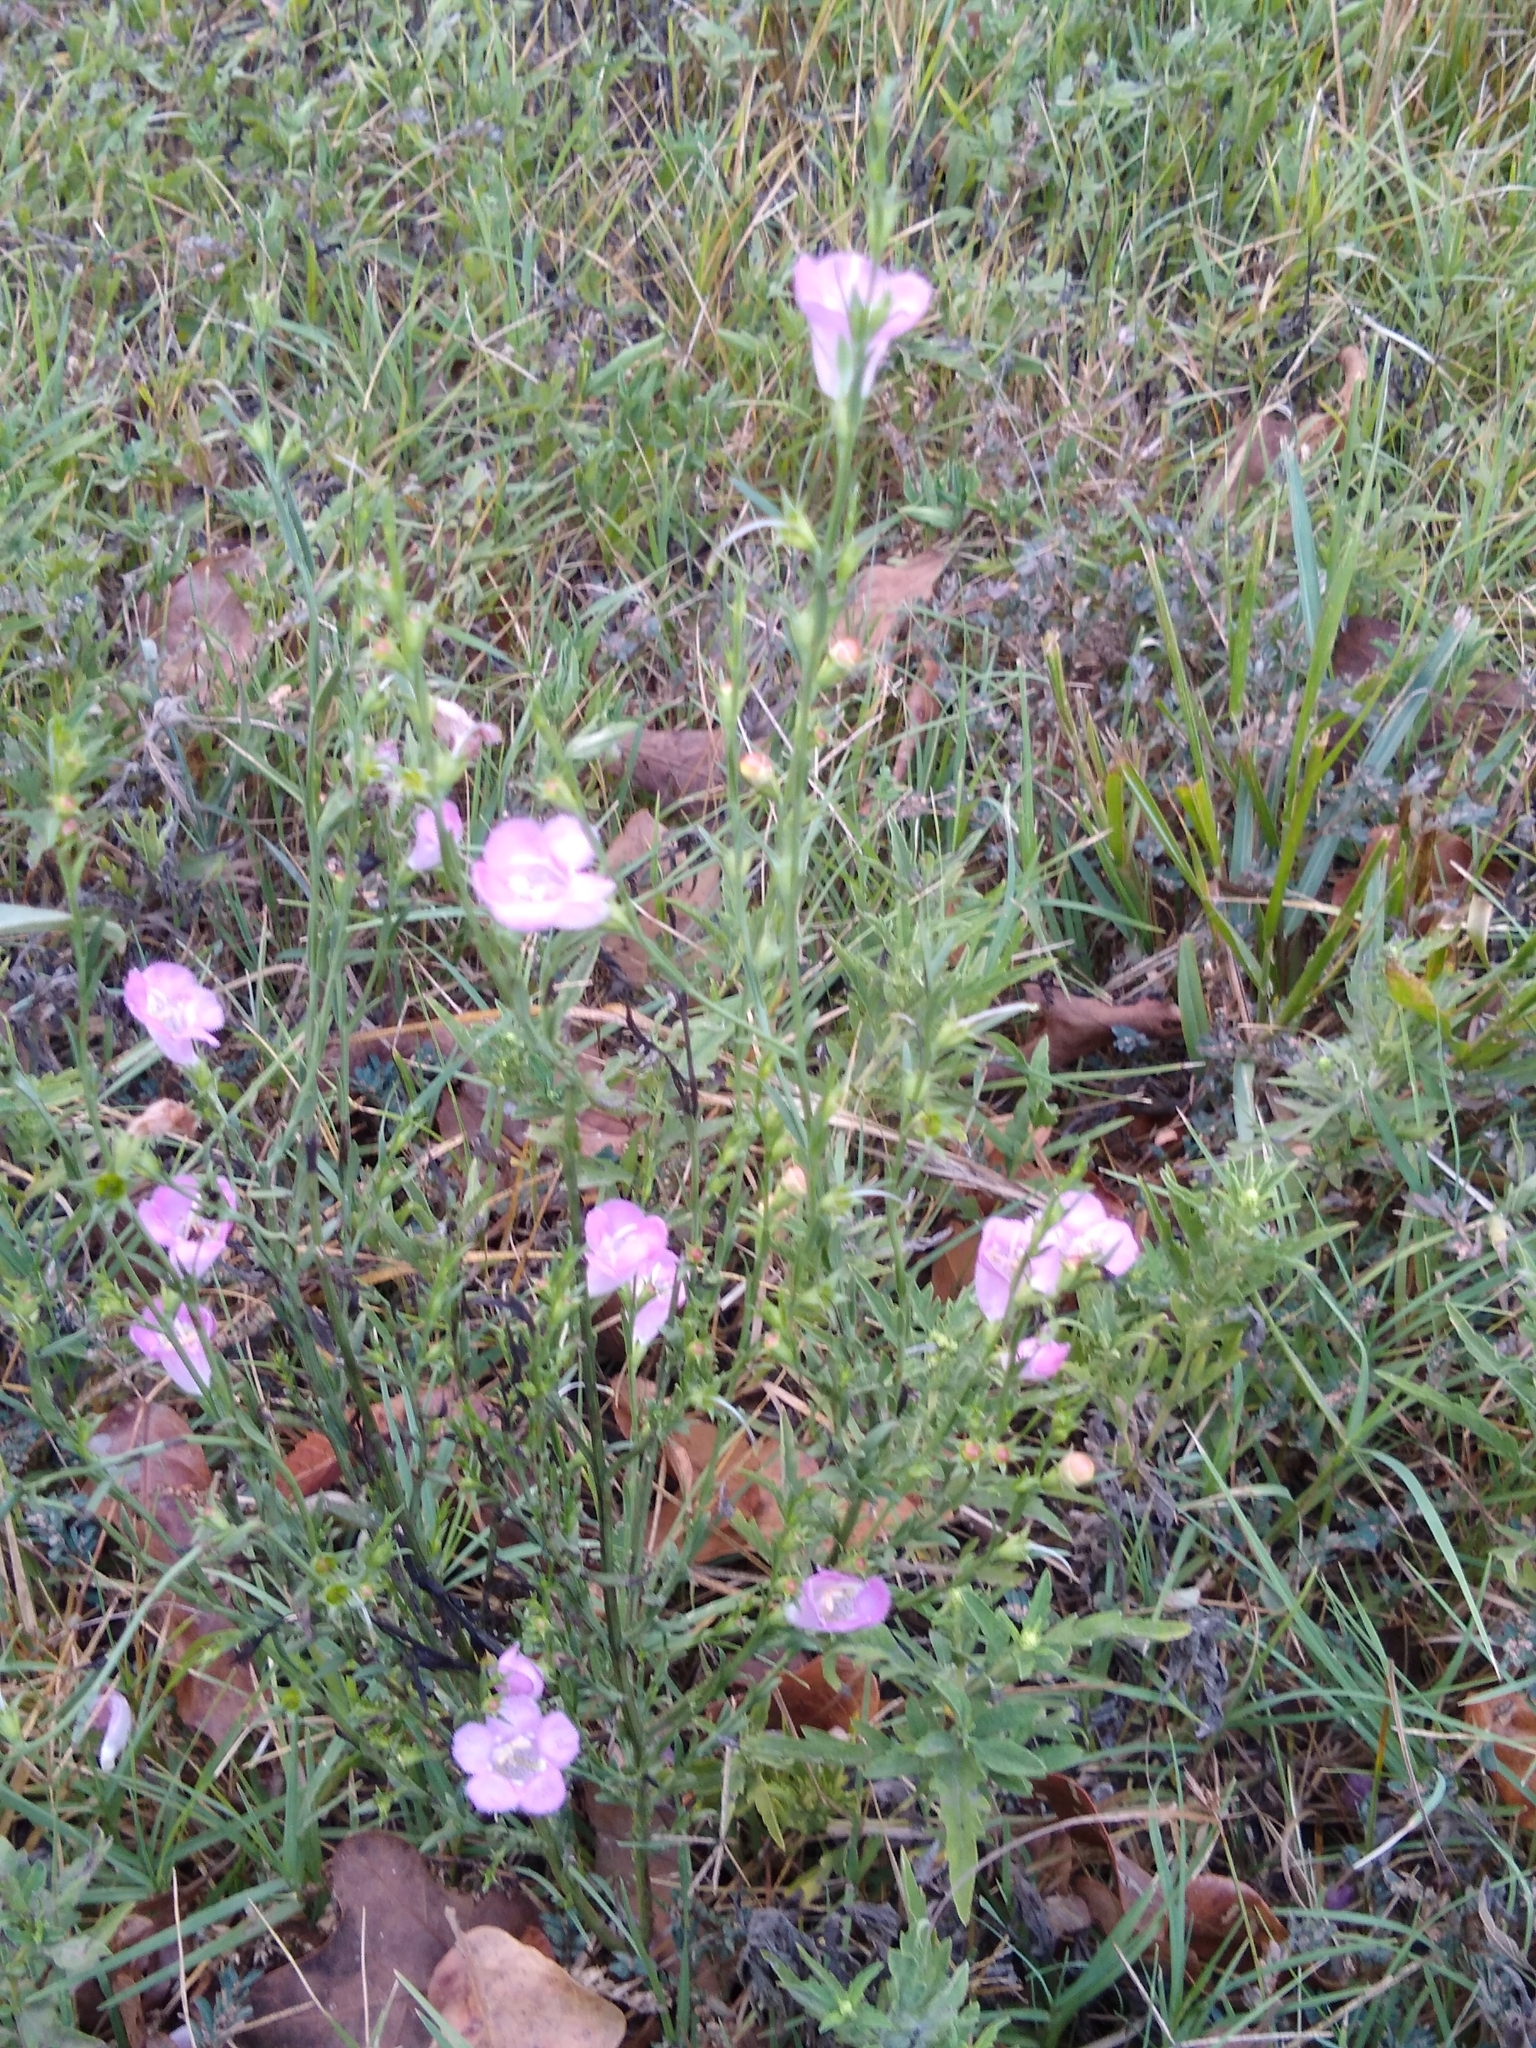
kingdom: Plantae
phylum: Tracheophyta
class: Magnoliopsida
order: Lamiales
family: Orobanchaceae
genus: Agalinis
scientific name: Agalinis heterophylla
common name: Prairie agalinis
